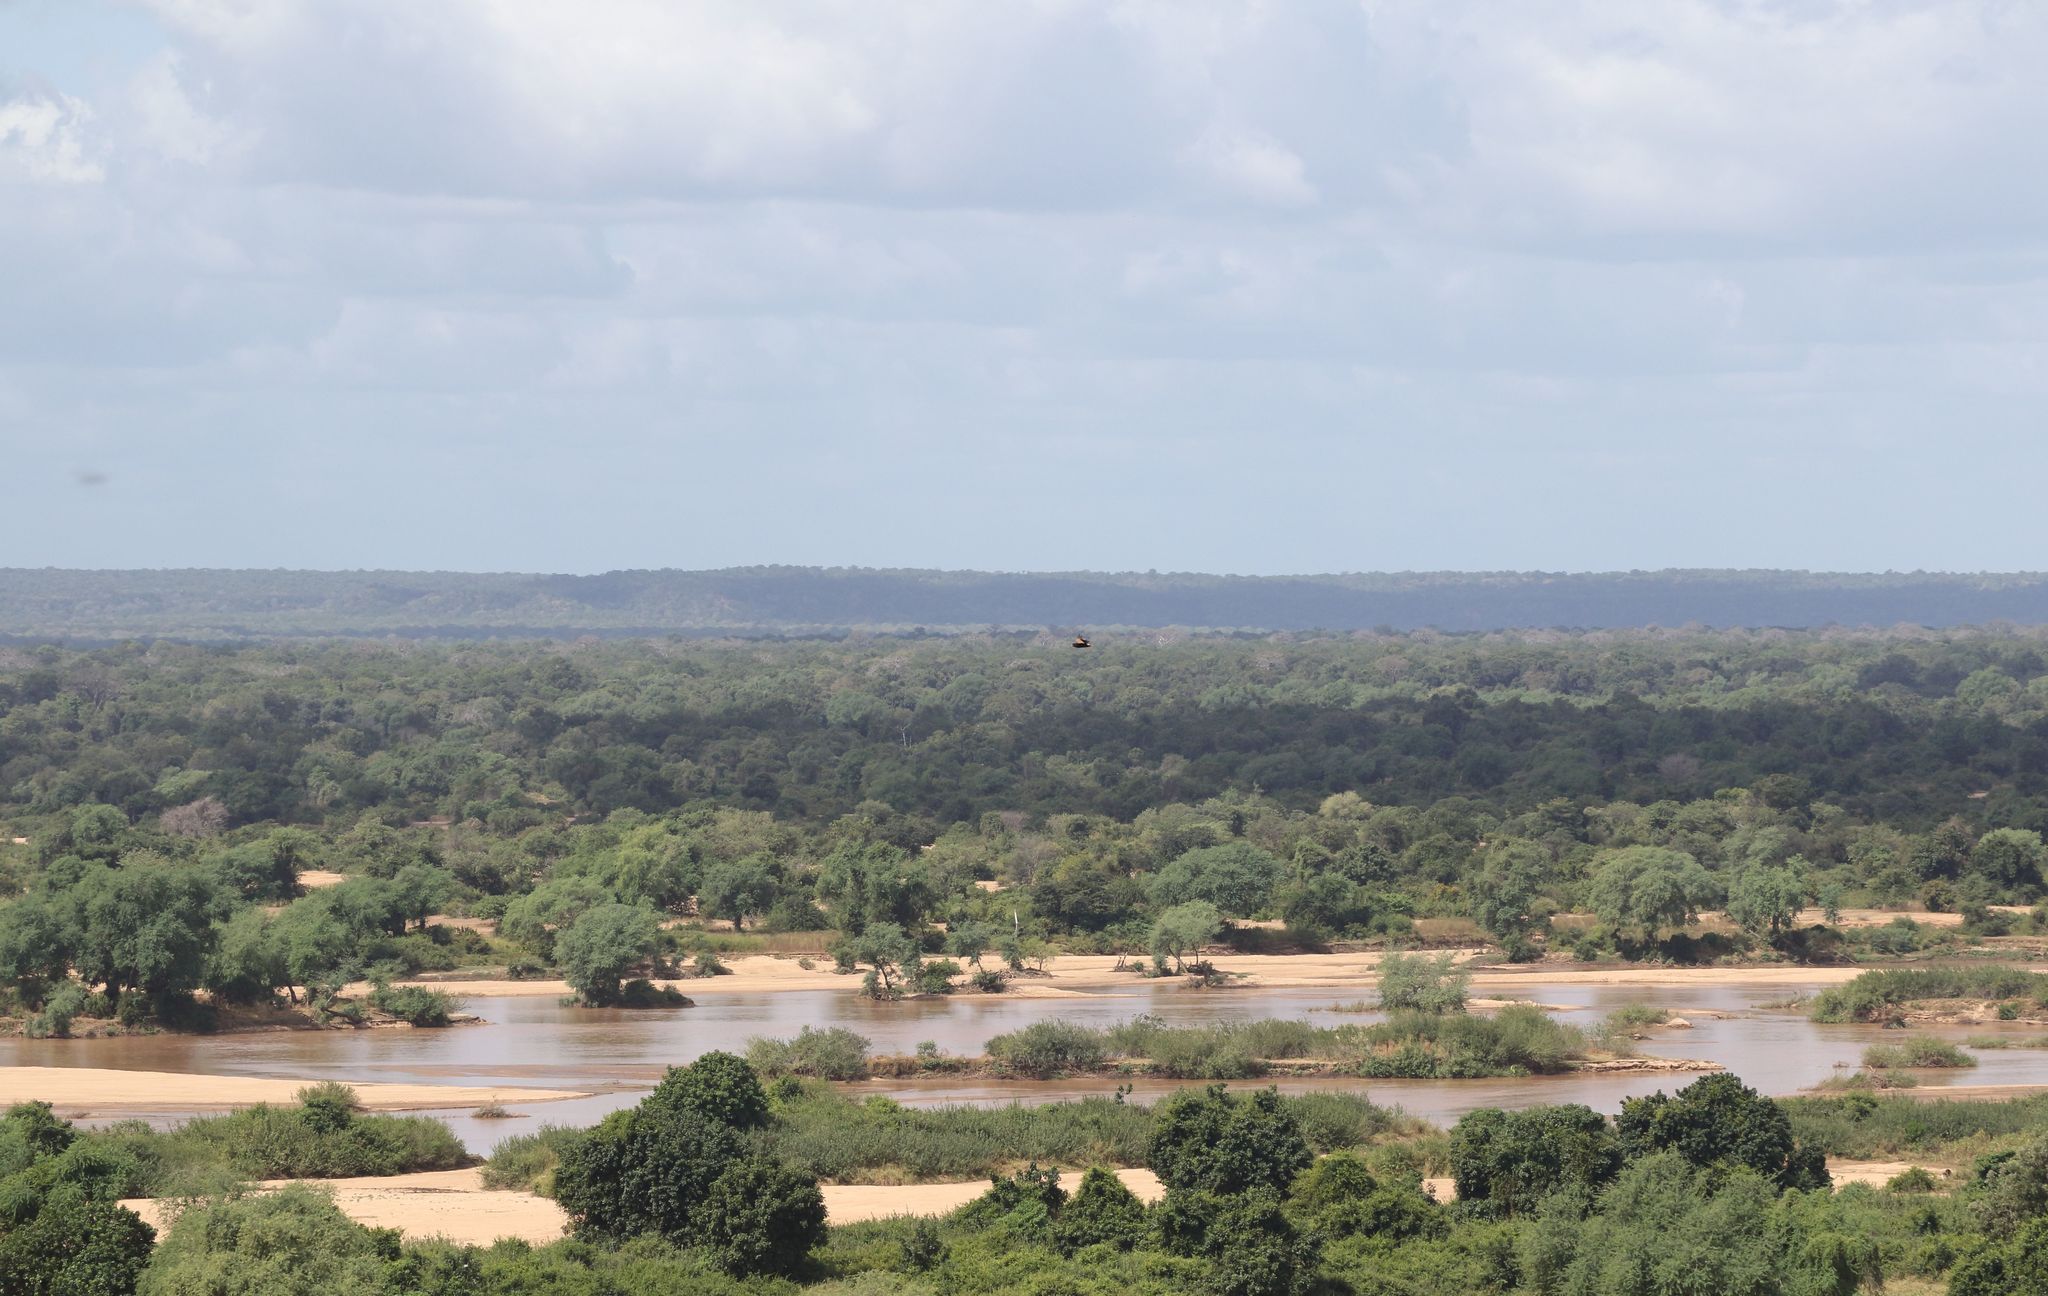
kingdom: Animalia
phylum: Chordata
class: Aves
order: Accipitriformes
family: Accipitridae
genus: Terathopius
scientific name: Terathopius ecaudatus
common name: Bateleur
